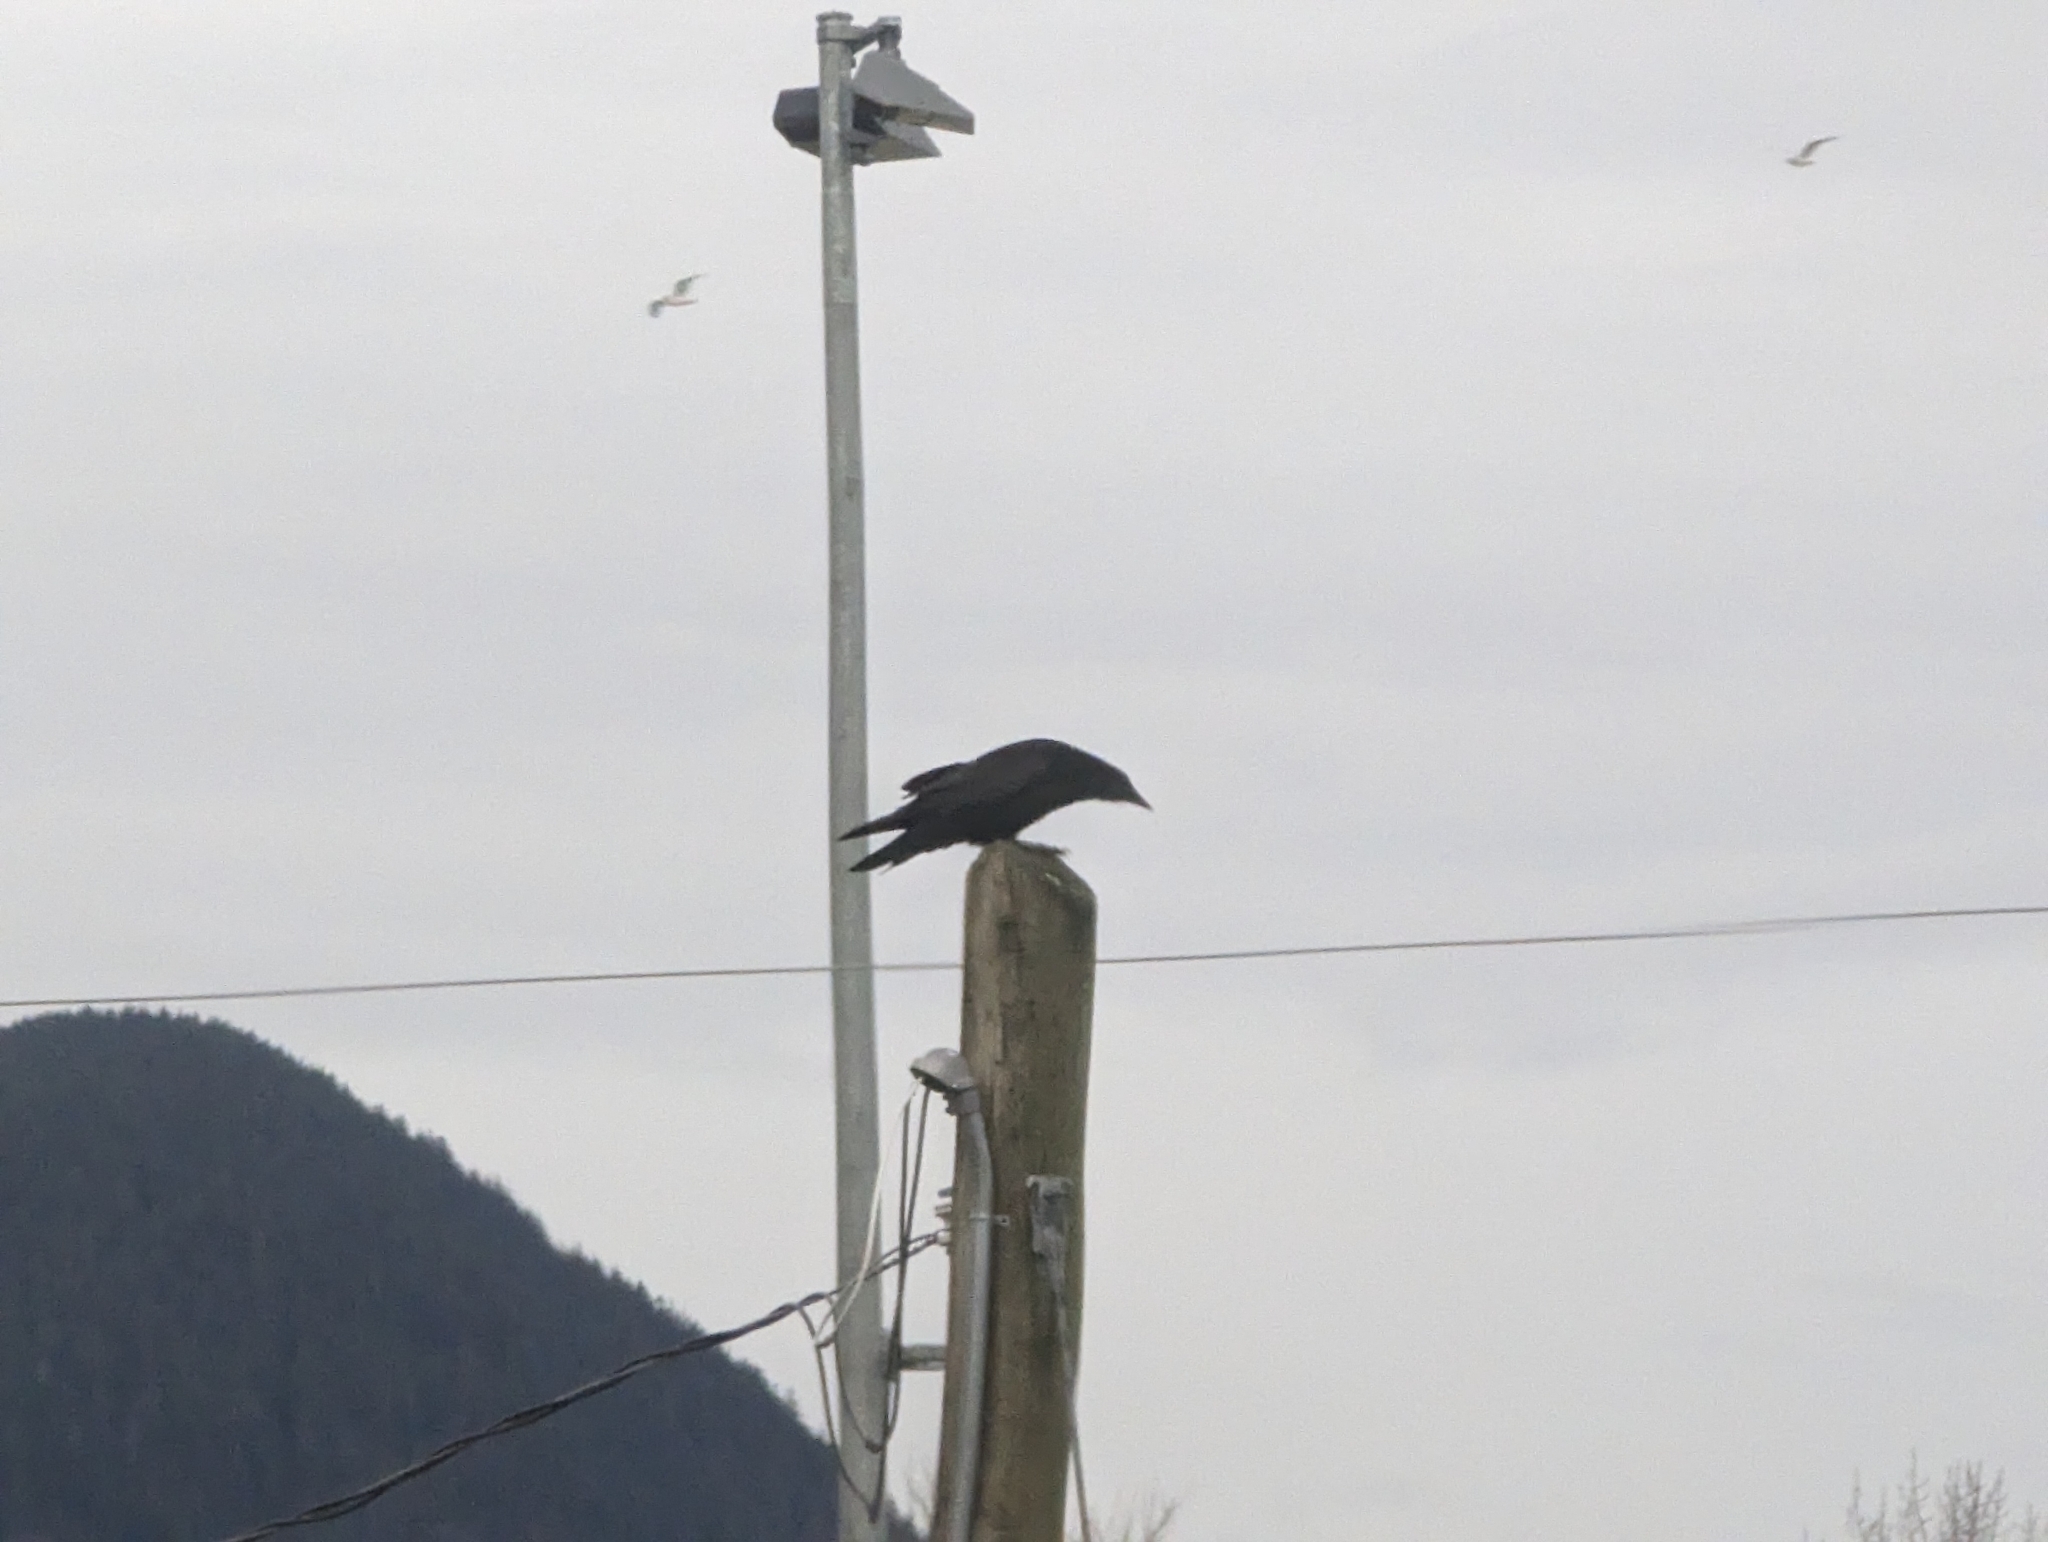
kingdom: Animalia
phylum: Chordata
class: Aves
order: Passeriformes
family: Corvidae
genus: Corvus
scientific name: Corvus corax
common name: Common raven
